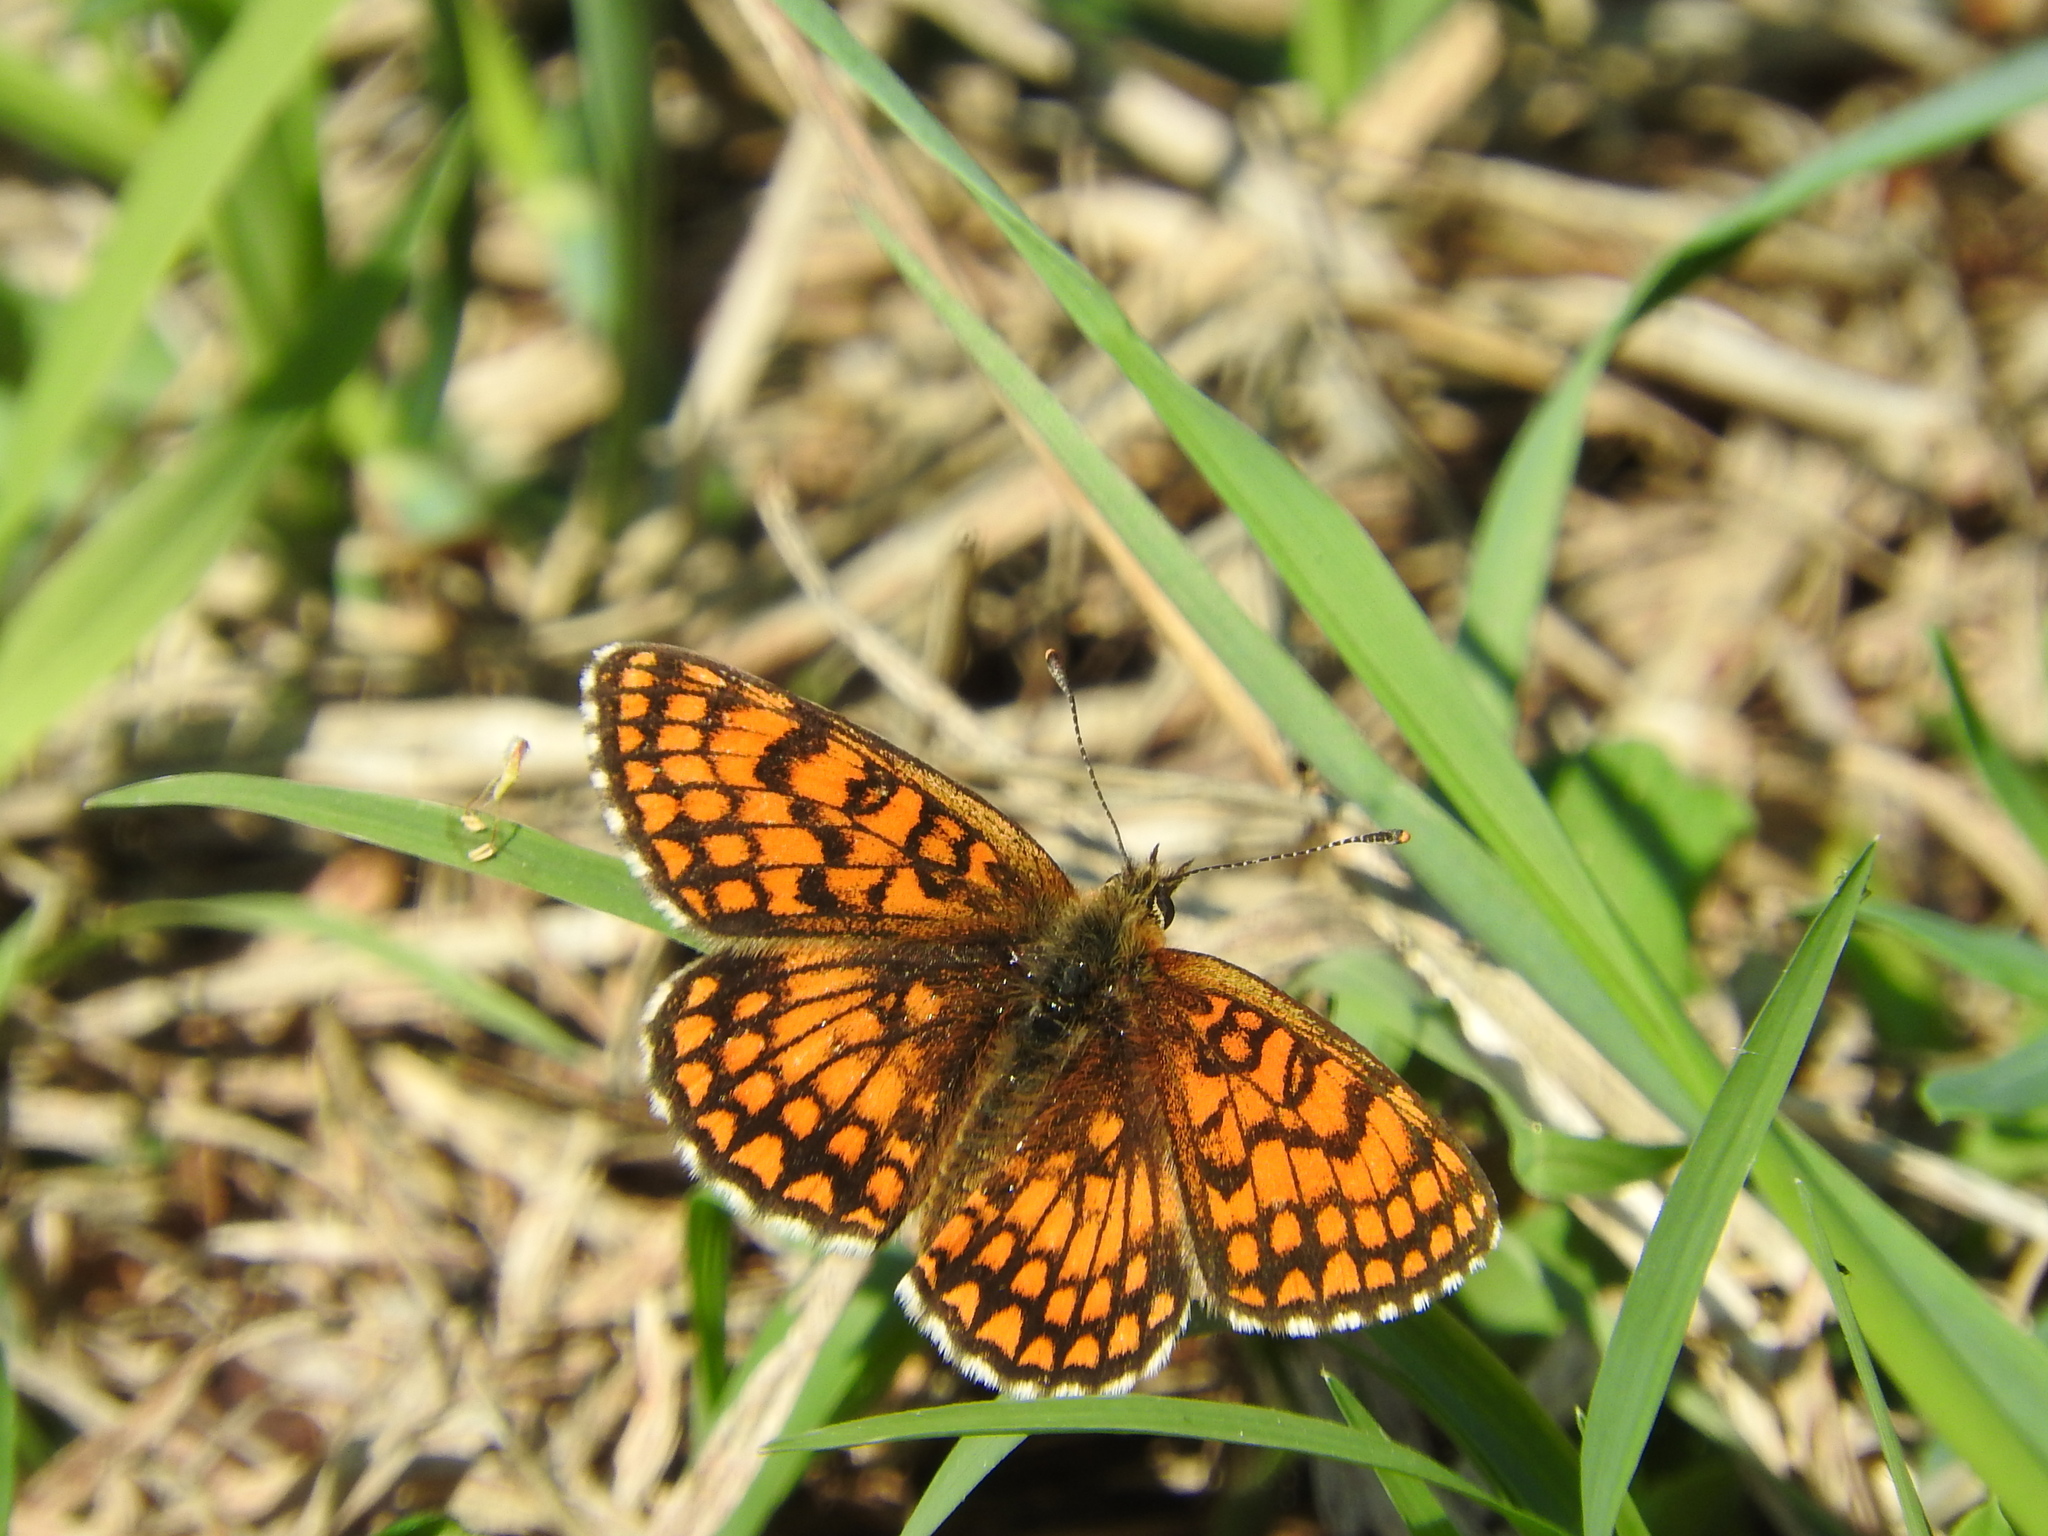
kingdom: Animalia
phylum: Arthropoda
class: Insecta
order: Lepidoptera
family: Nymphalidae
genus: Mellicta
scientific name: Mellicta athalia
